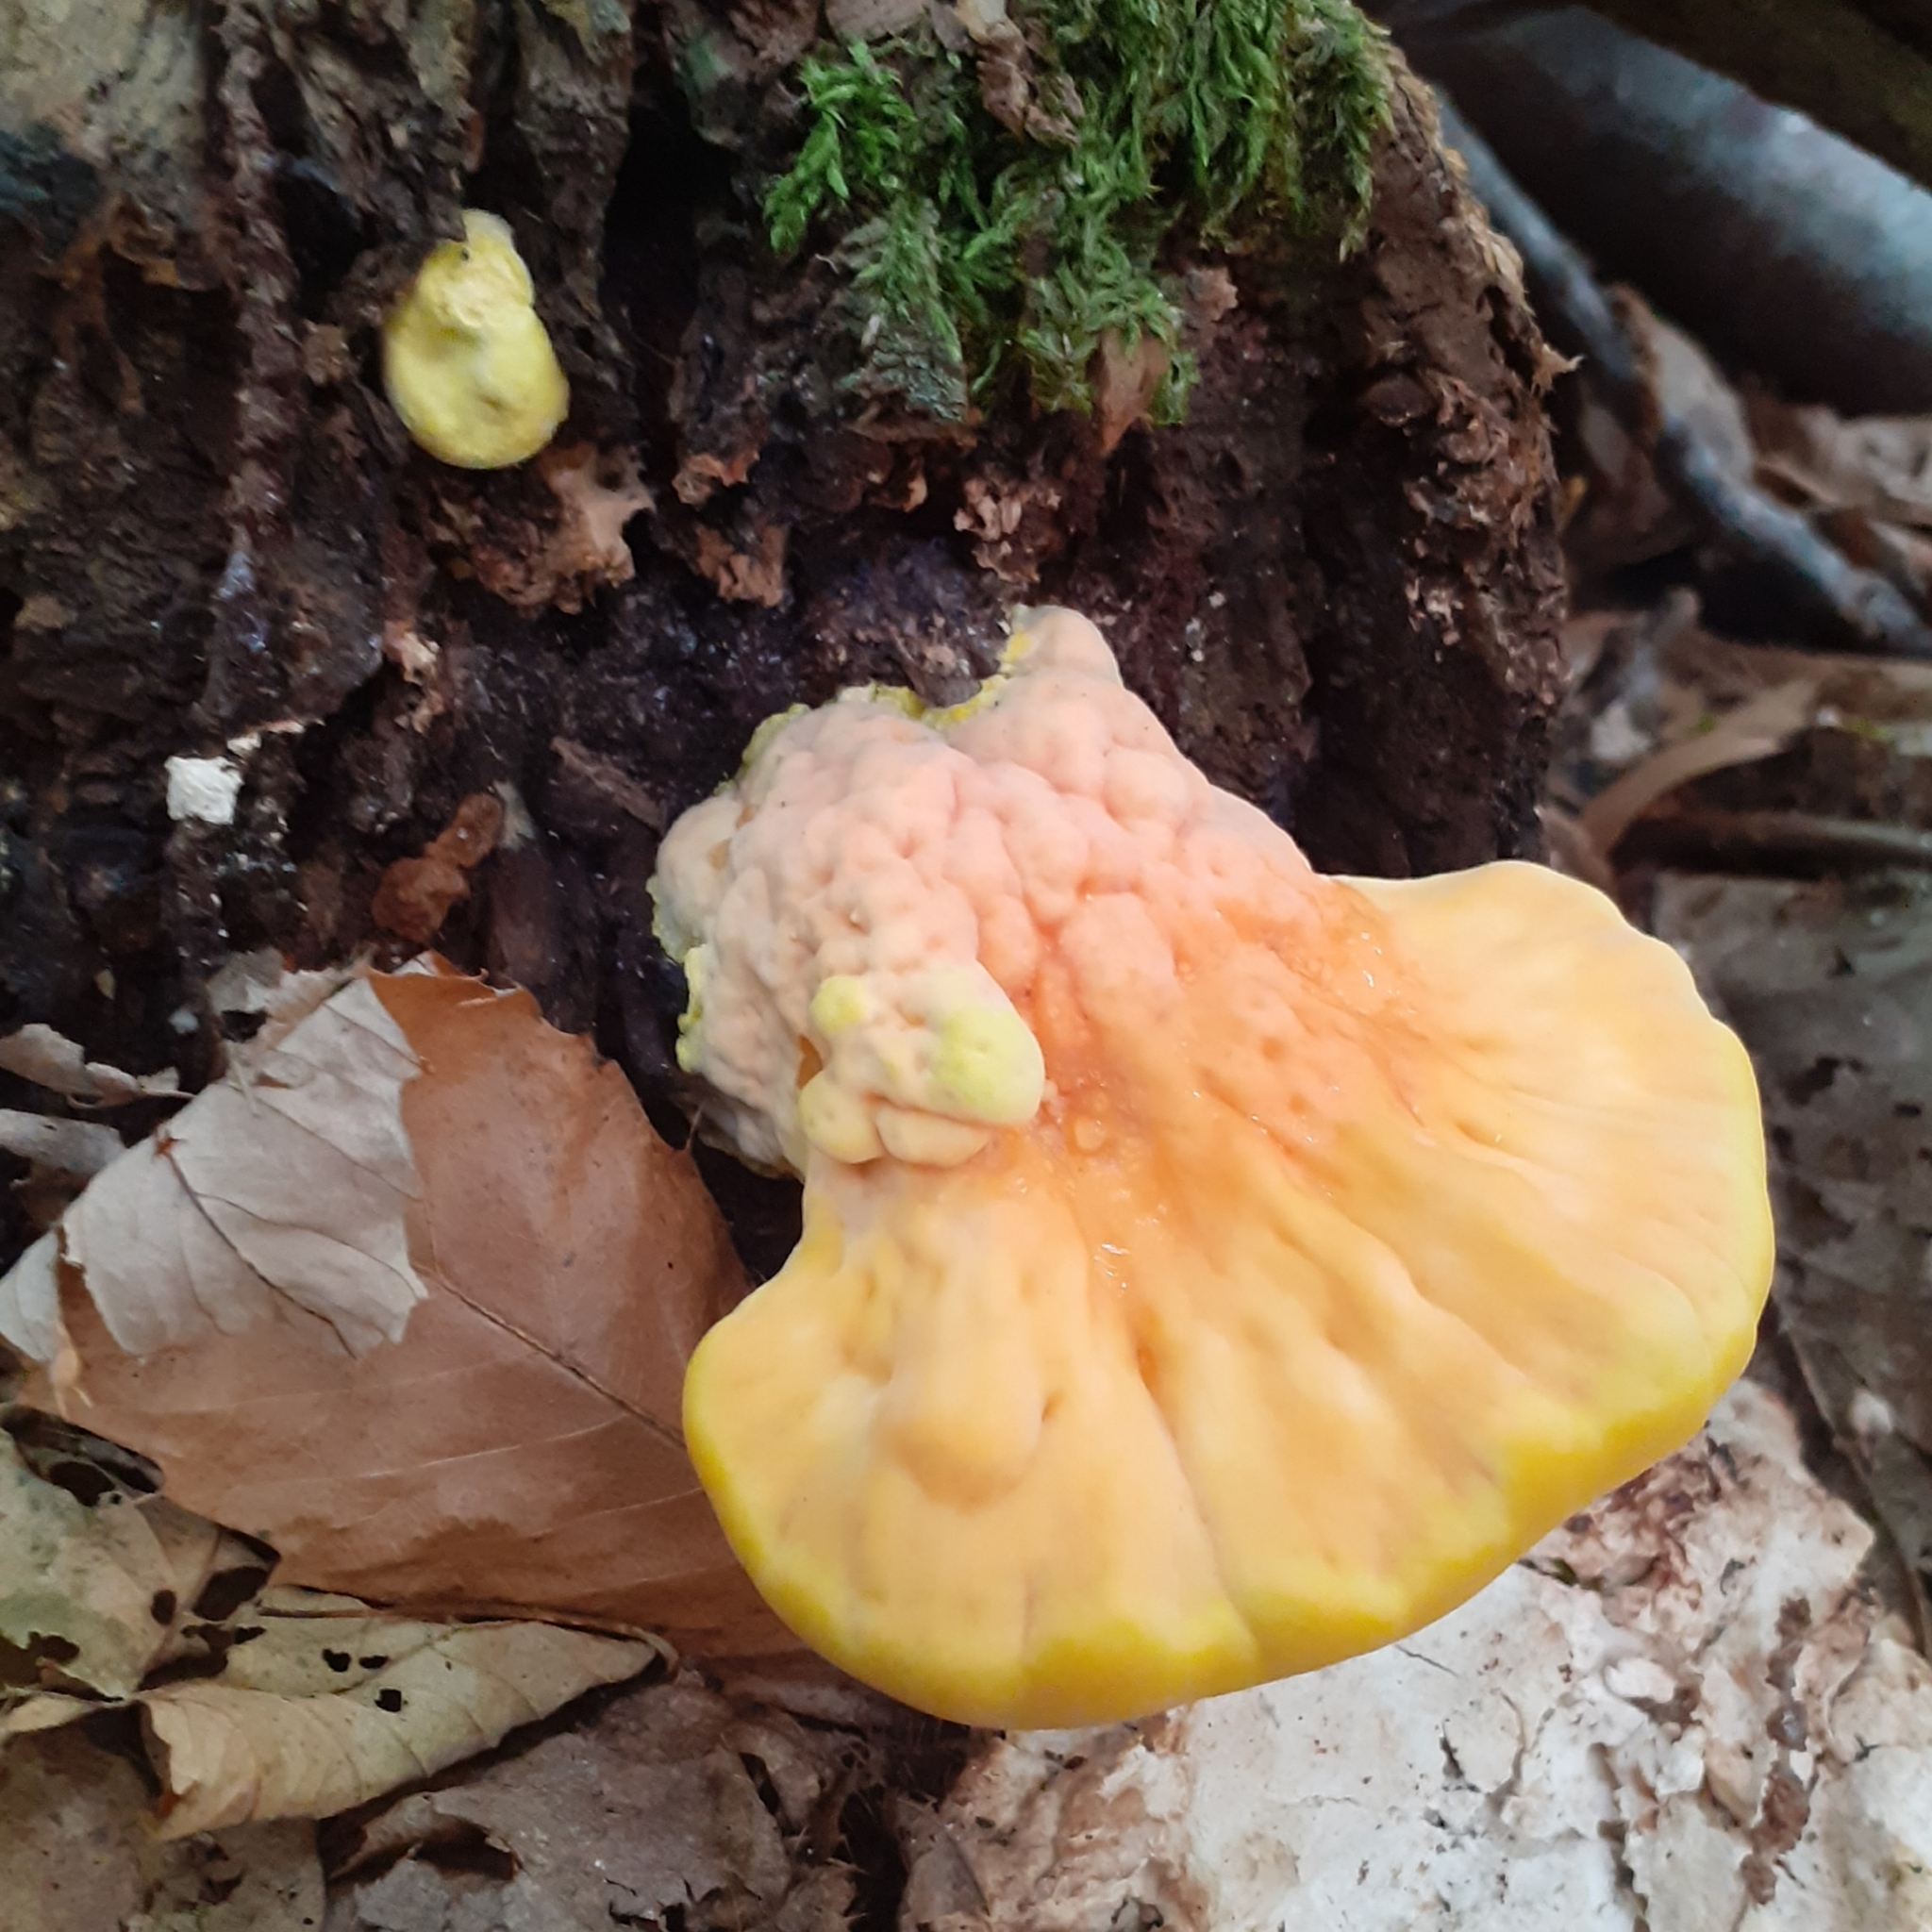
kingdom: Fungi
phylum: Basidiomycota
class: Agaricomycetes
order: Polyporales
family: Laetiporaceae
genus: Laetiporus
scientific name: Laetiporus sulphureus
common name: Chicken of the woods
